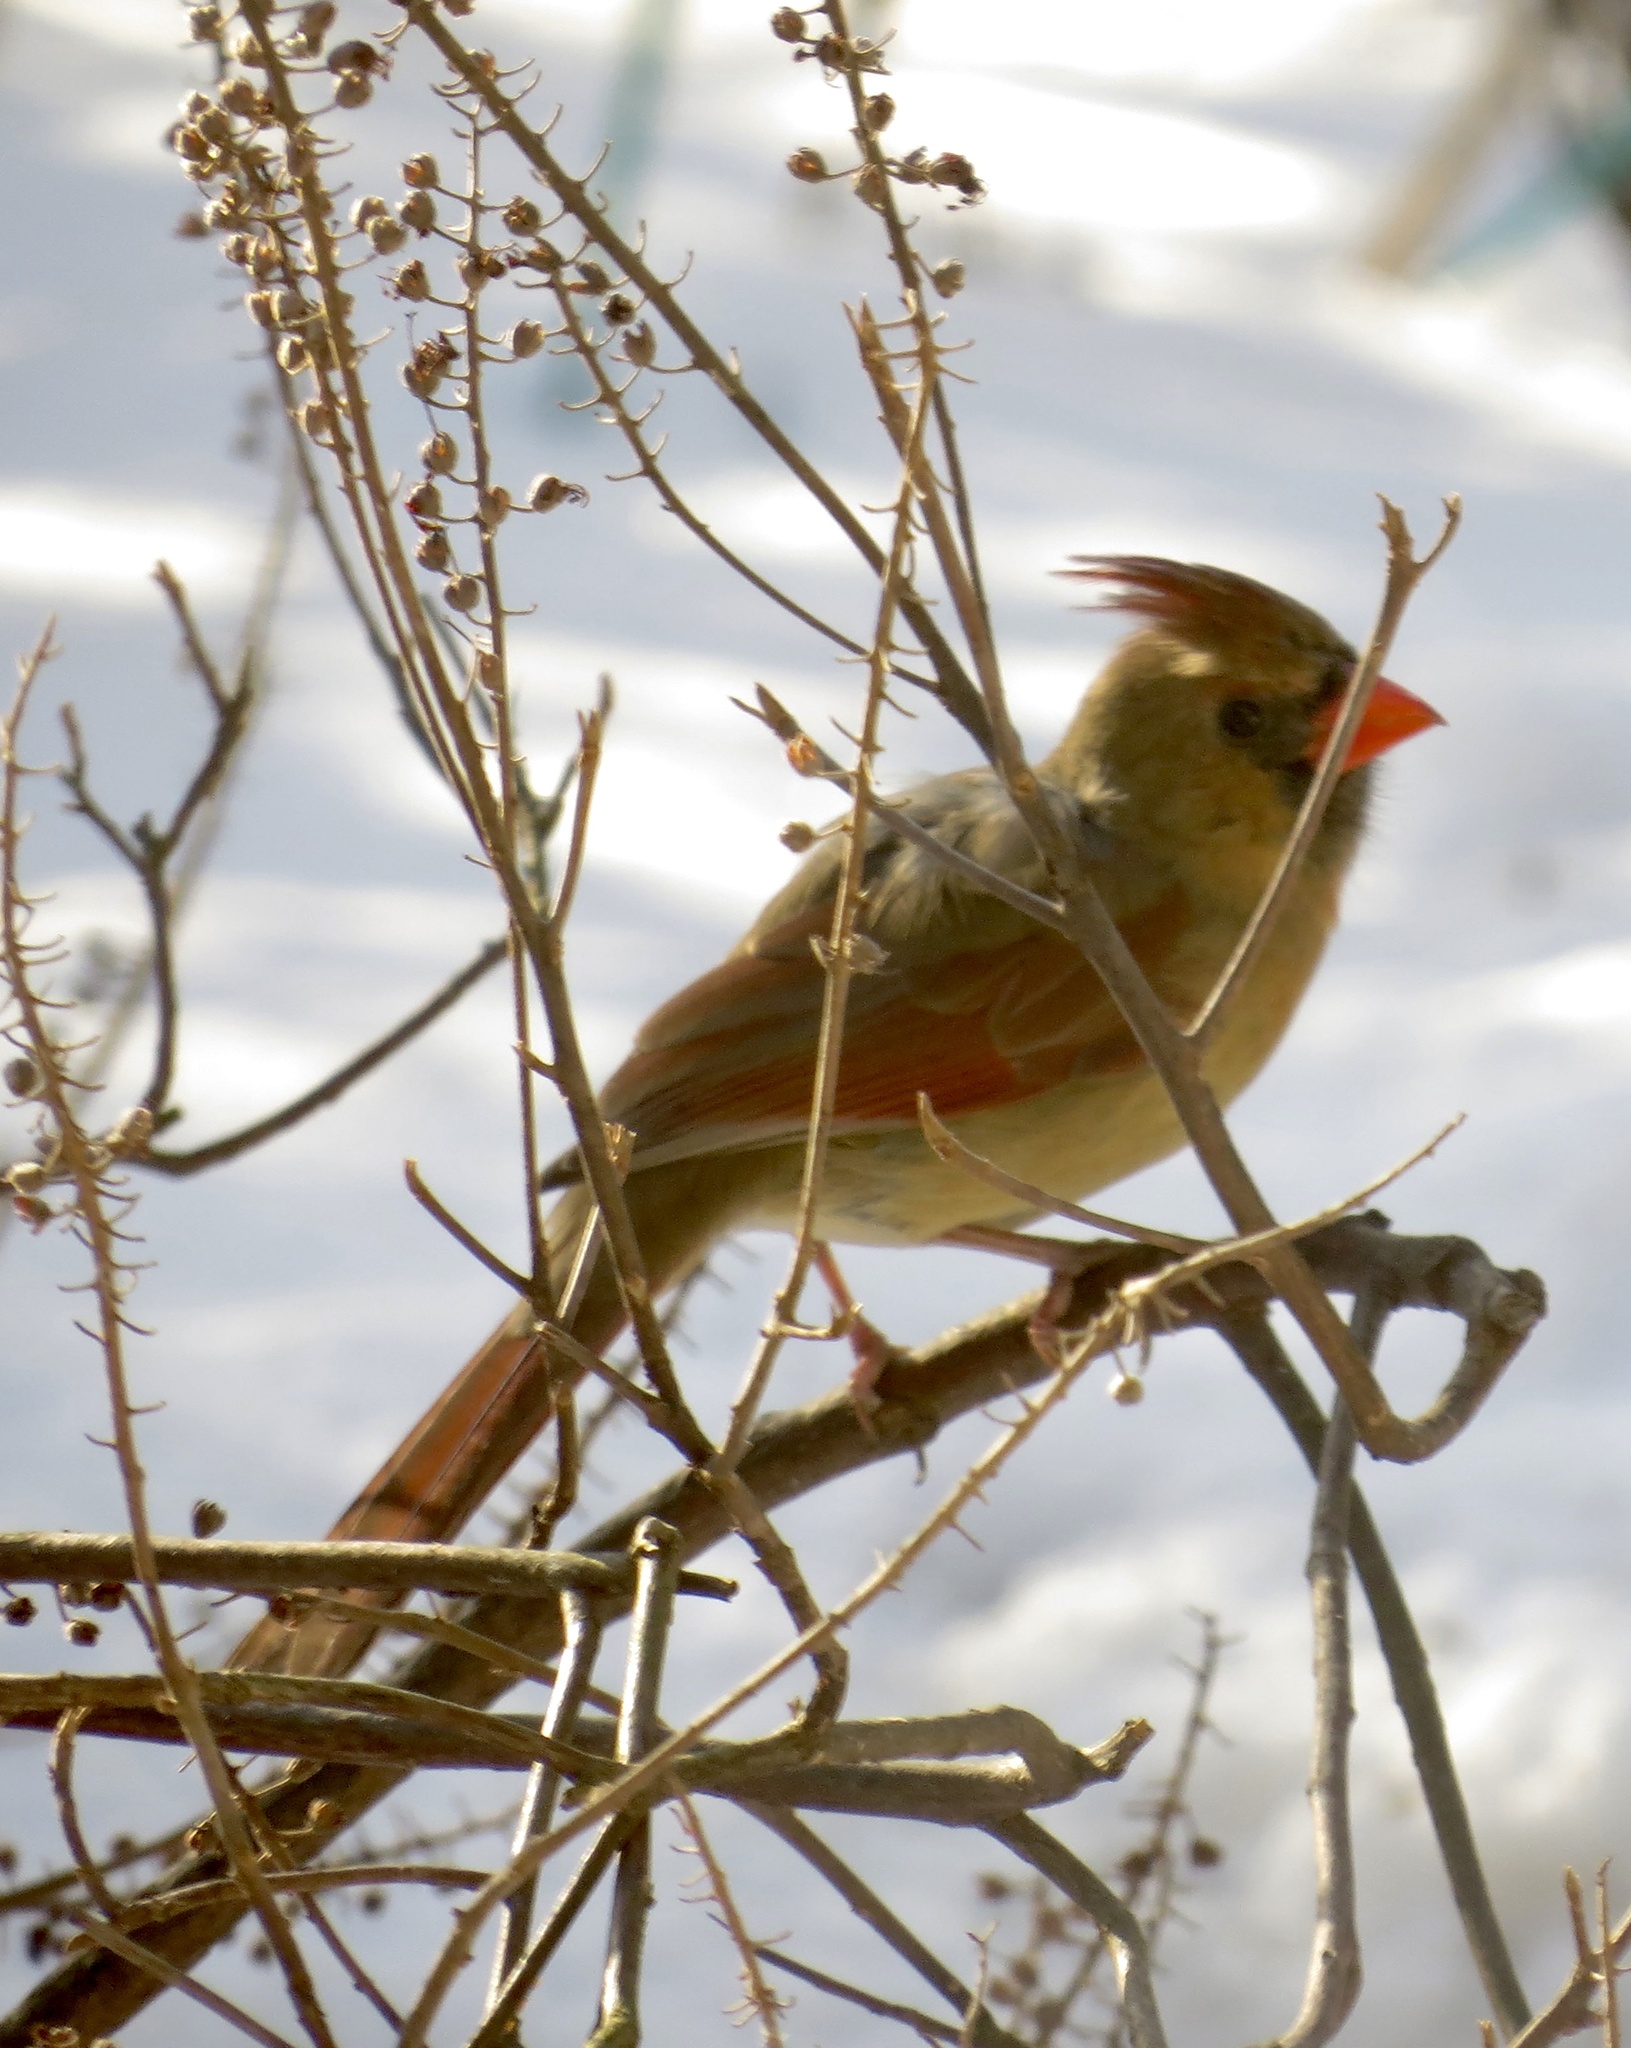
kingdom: Animalia
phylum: Chordata
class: Aves
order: Passeriformes
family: Cardinalidae
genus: Cardinalis
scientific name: Cardinalis cardinalis
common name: Northern cardinal
